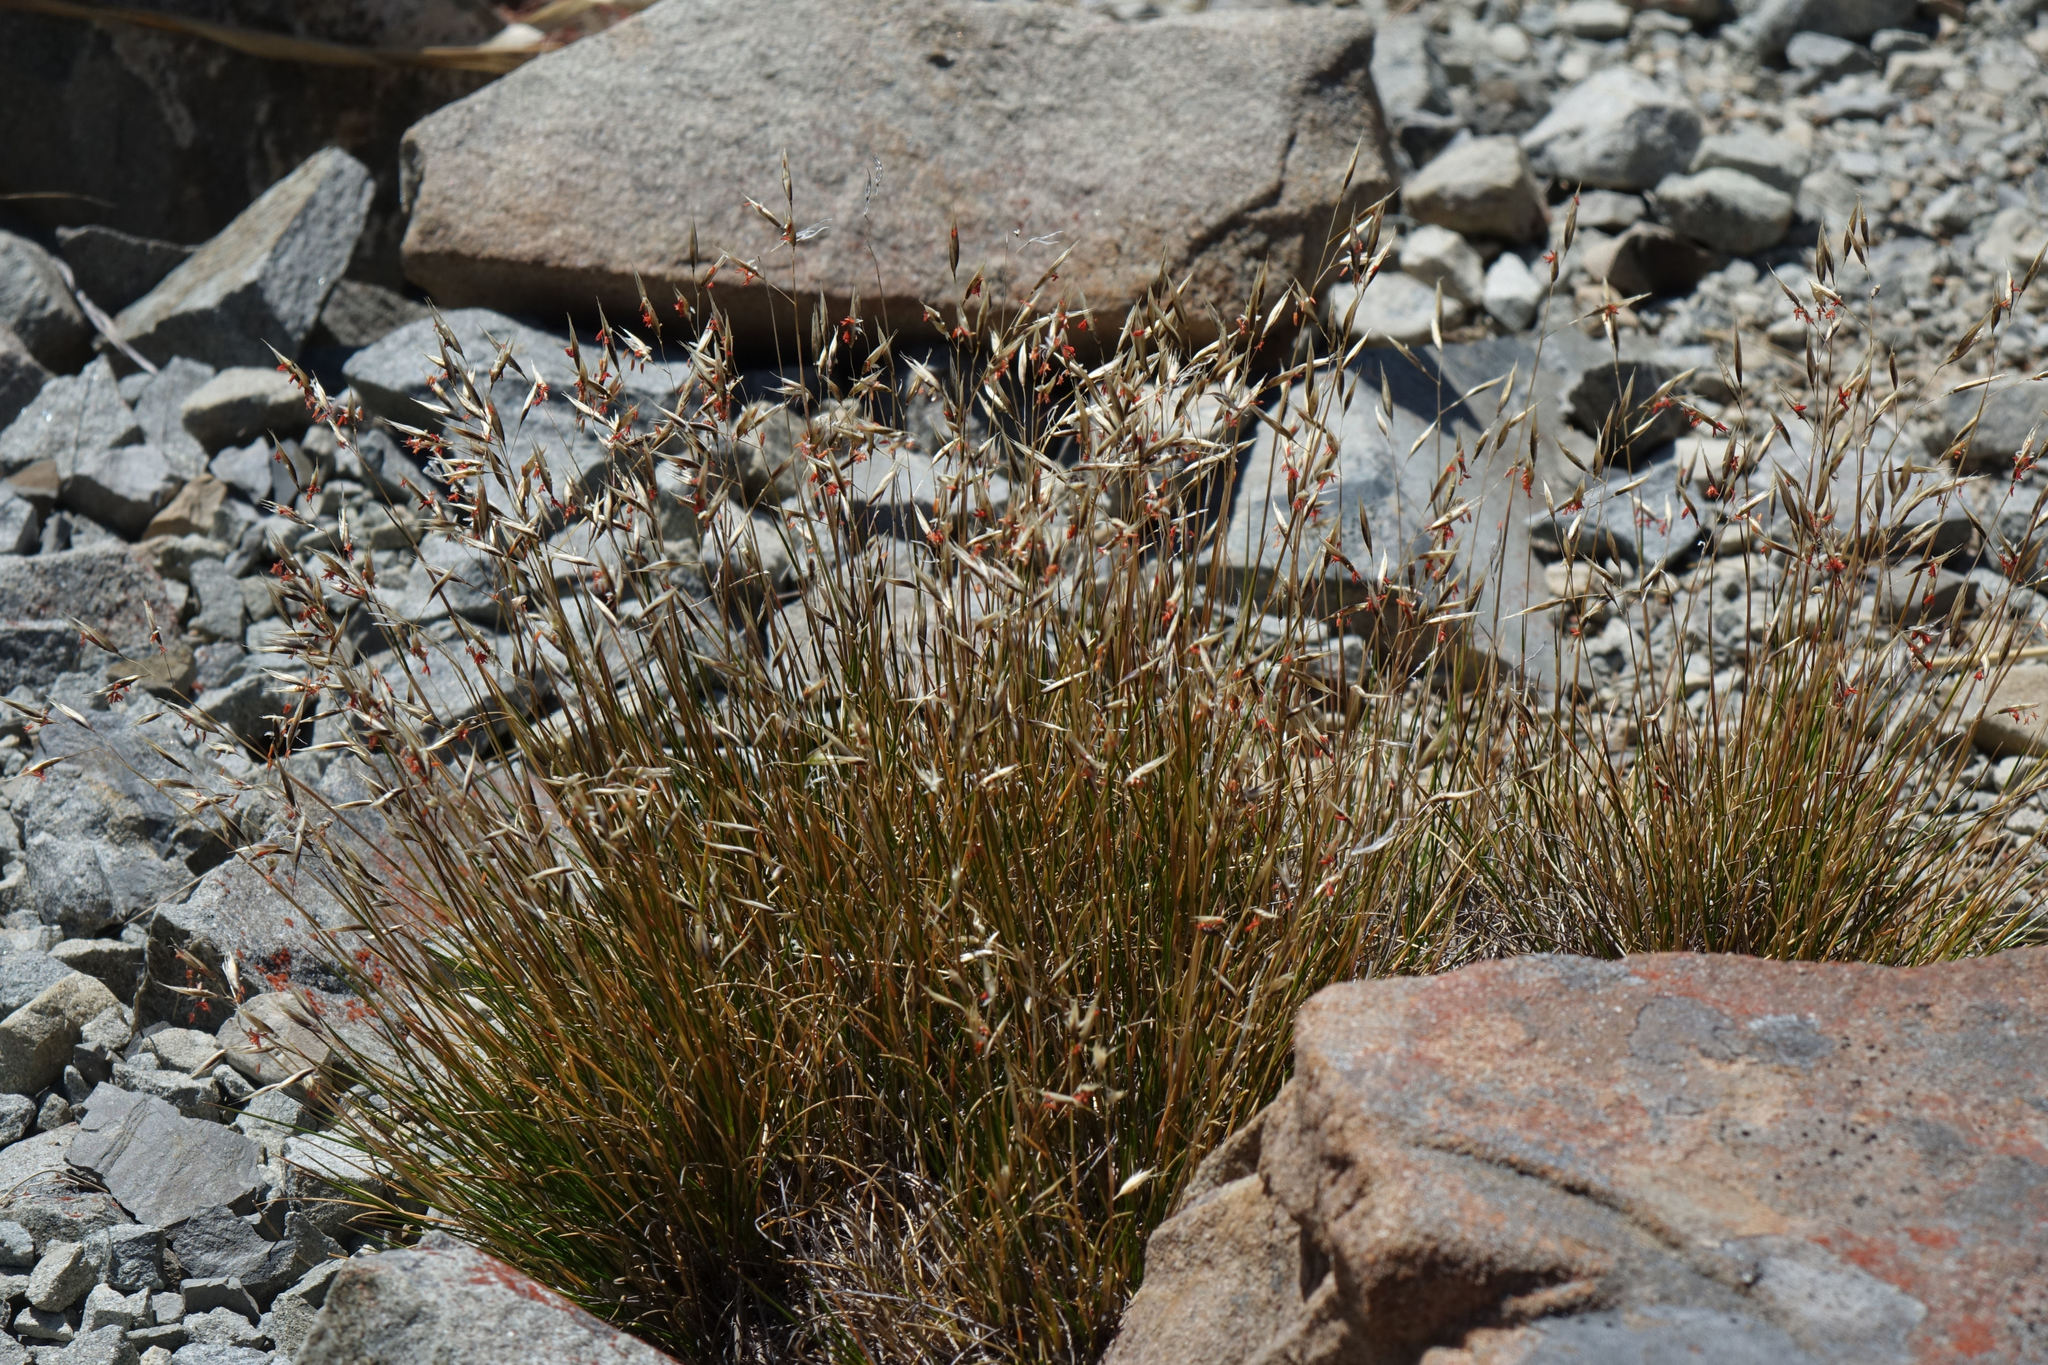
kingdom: Plantae
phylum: Tracheophyta
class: Liliopsida
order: Poales
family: Poaceae
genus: Rytidosperma
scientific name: Rytidosperma setifolium
